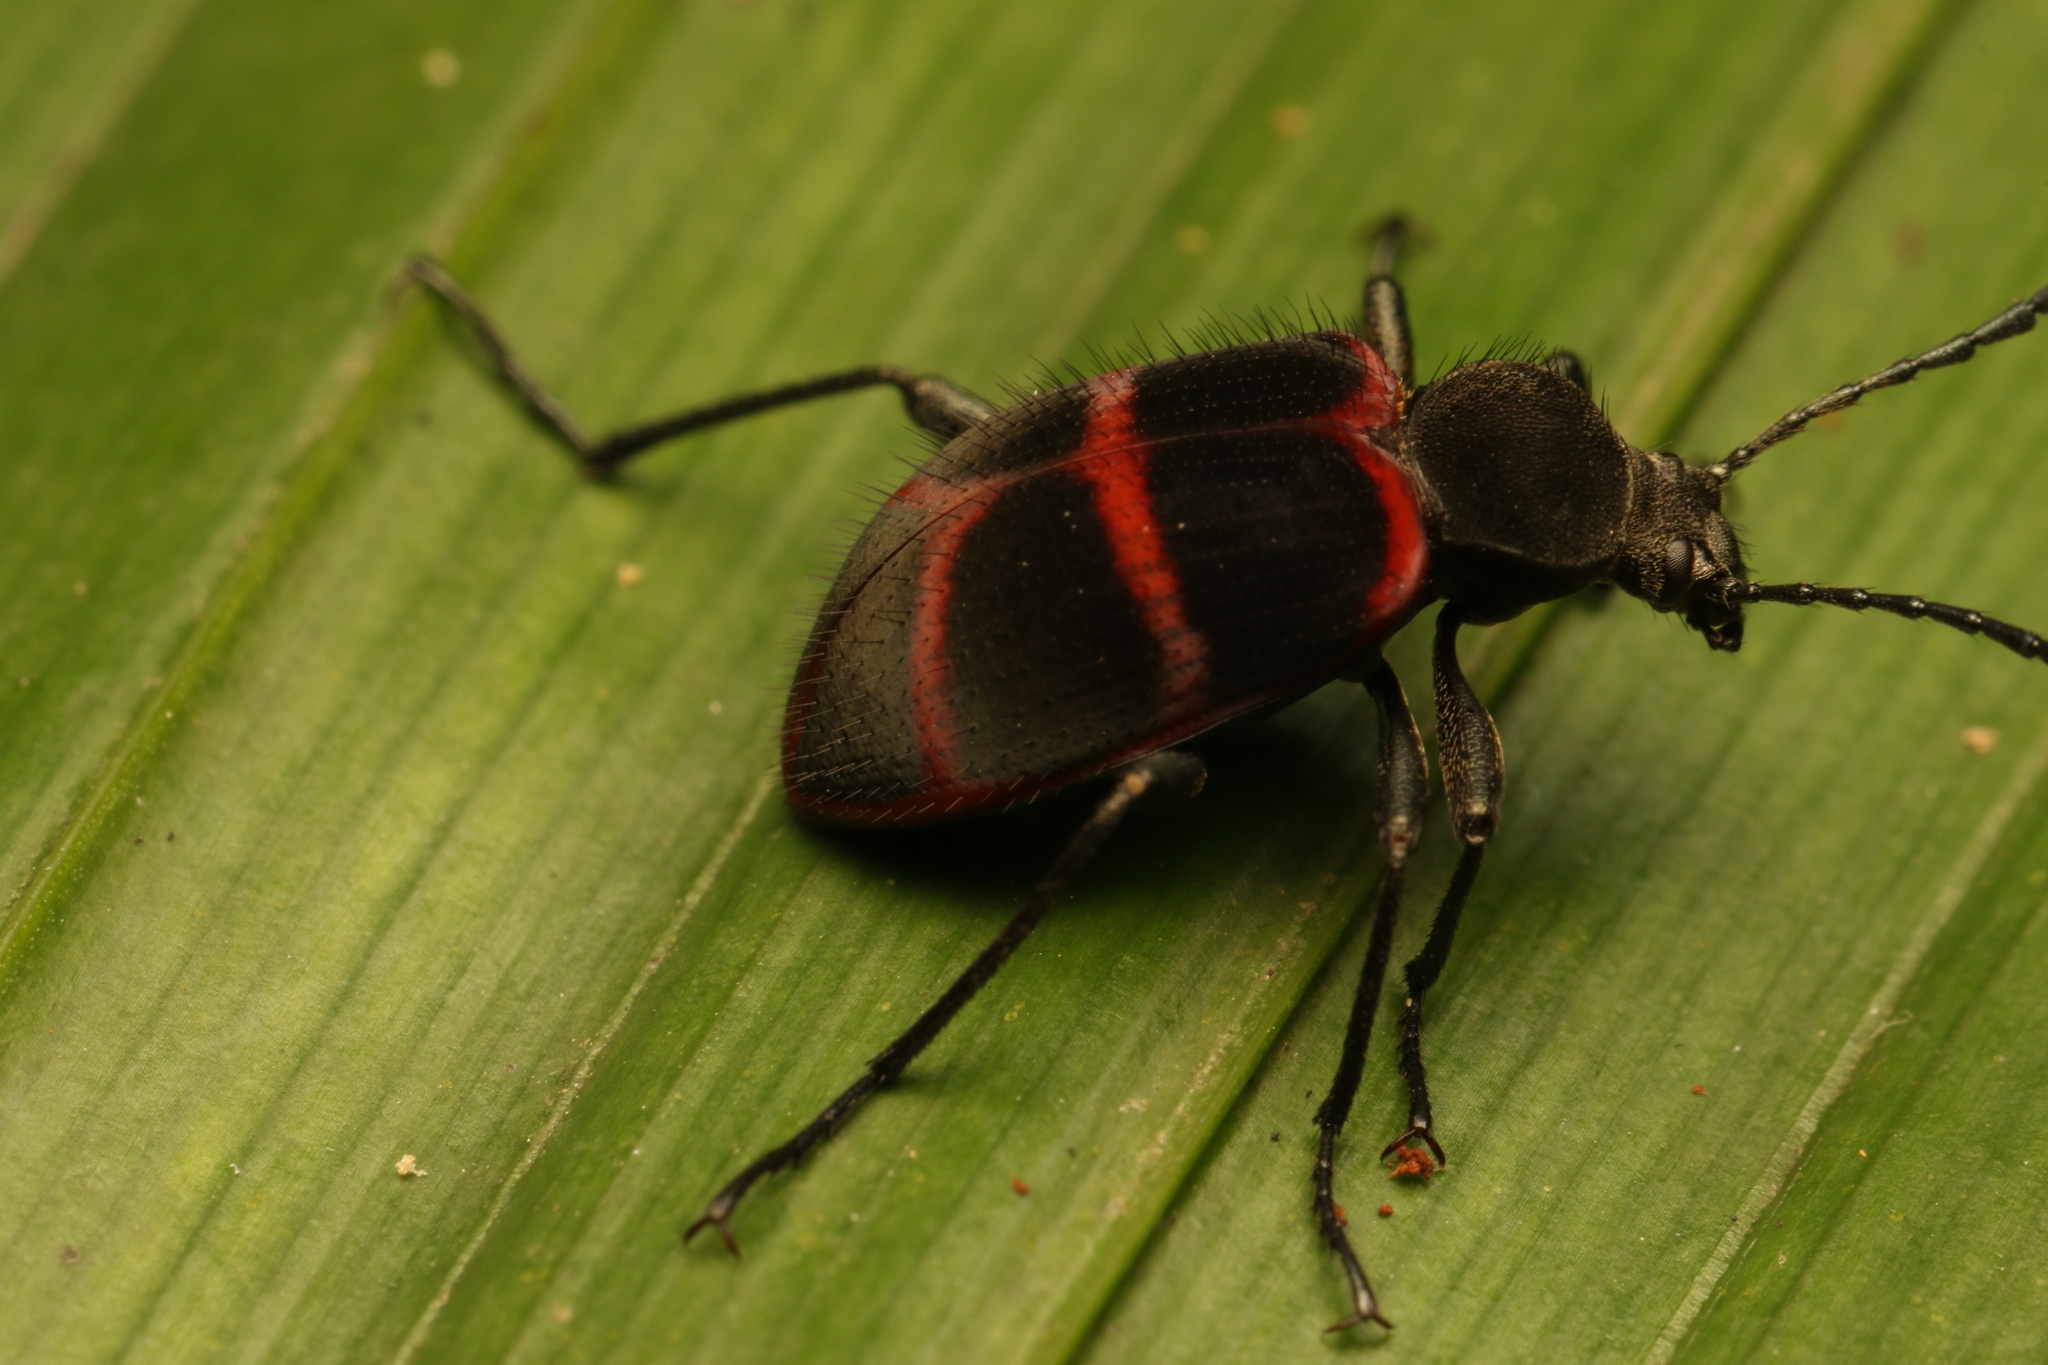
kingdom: Animalia
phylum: Arthropoda
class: Insecta
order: Coleoptera
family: Tenebrionidae
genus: Lystronychus
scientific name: Lystronychus
